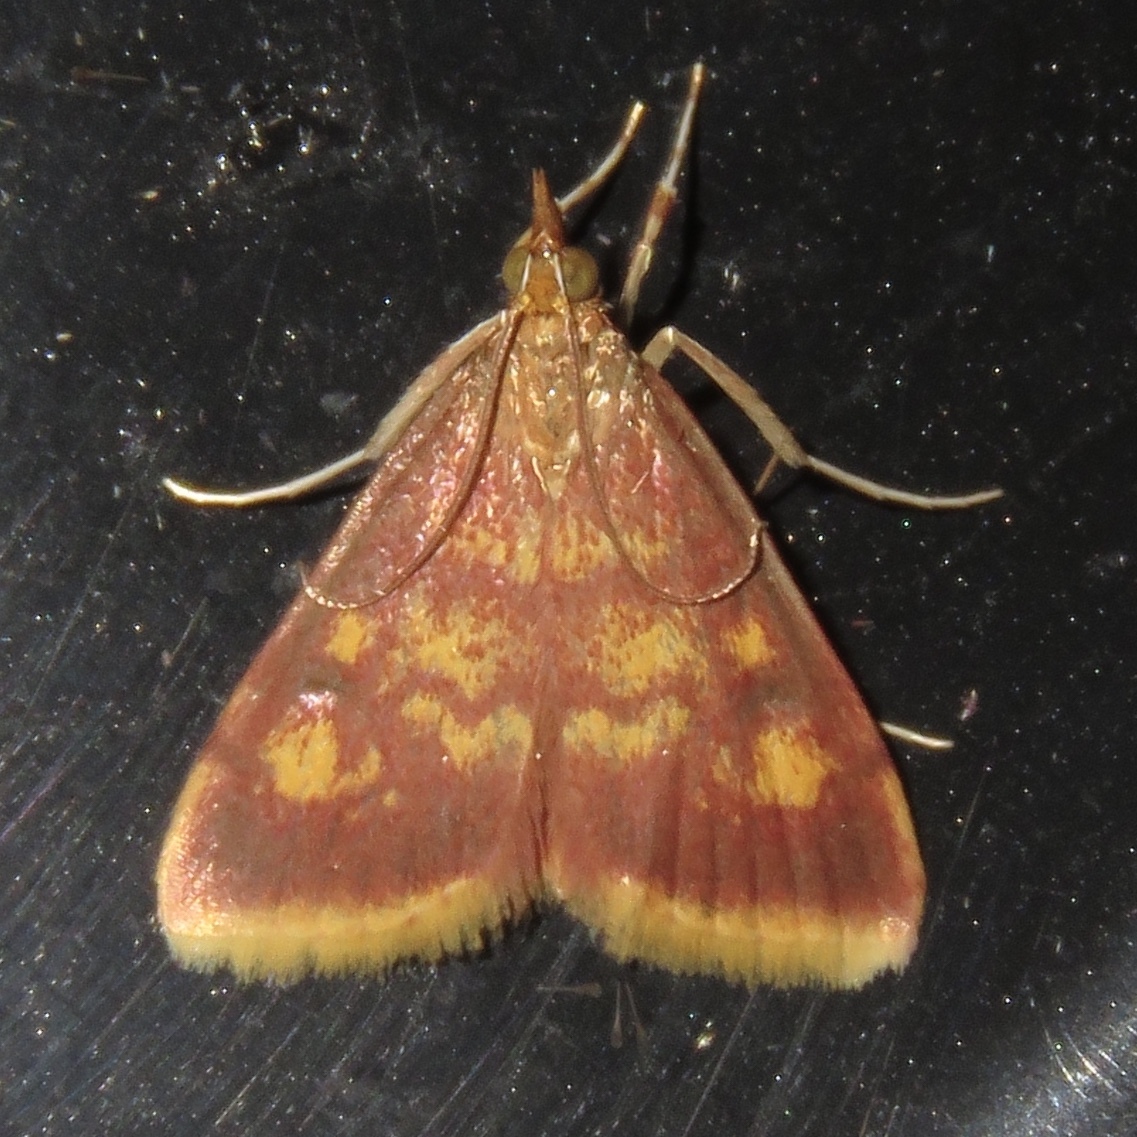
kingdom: Animalia
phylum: Arthropoda
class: Insecta
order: Lepidoptera
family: Crambidae
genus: Pyrausta
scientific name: Pyrausta acrionalis
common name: Mint-loving pyrausta moth
